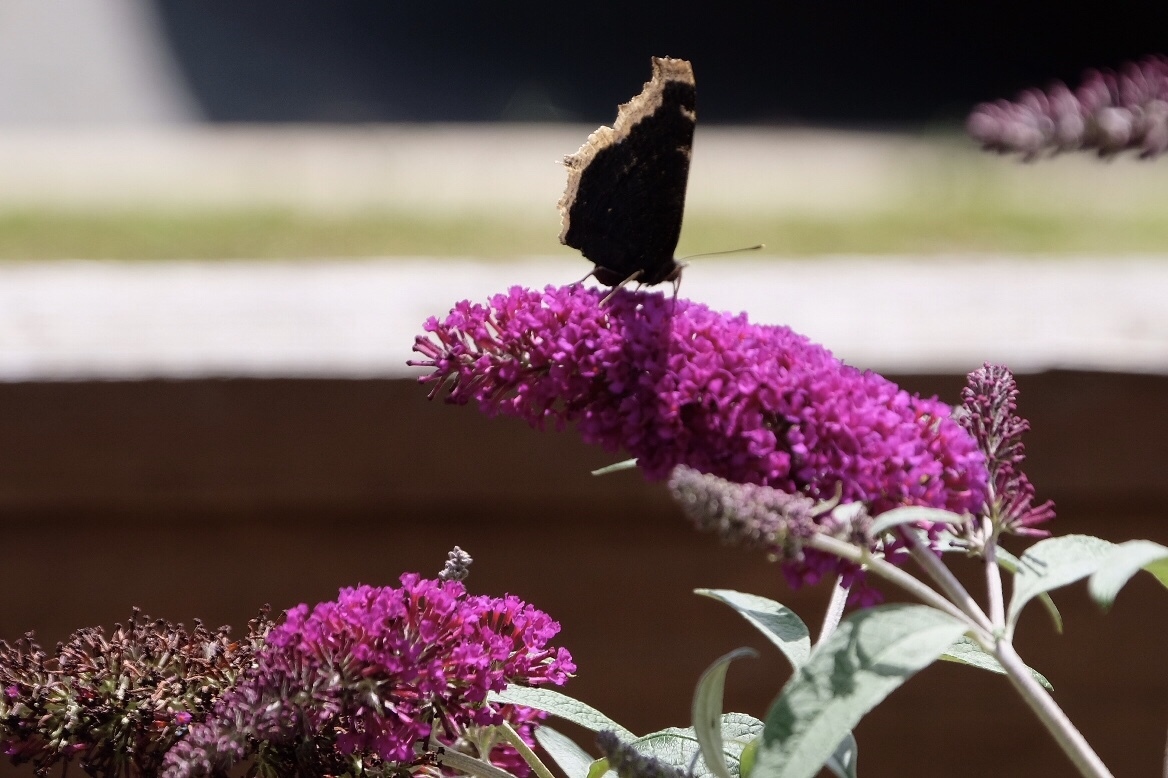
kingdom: Animalia
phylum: Arthropoda
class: Insecta
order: Lepidoptera
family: Nymphalidae
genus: Nymphalis
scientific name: Nymphalis antiopa
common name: Camberwell beauty
